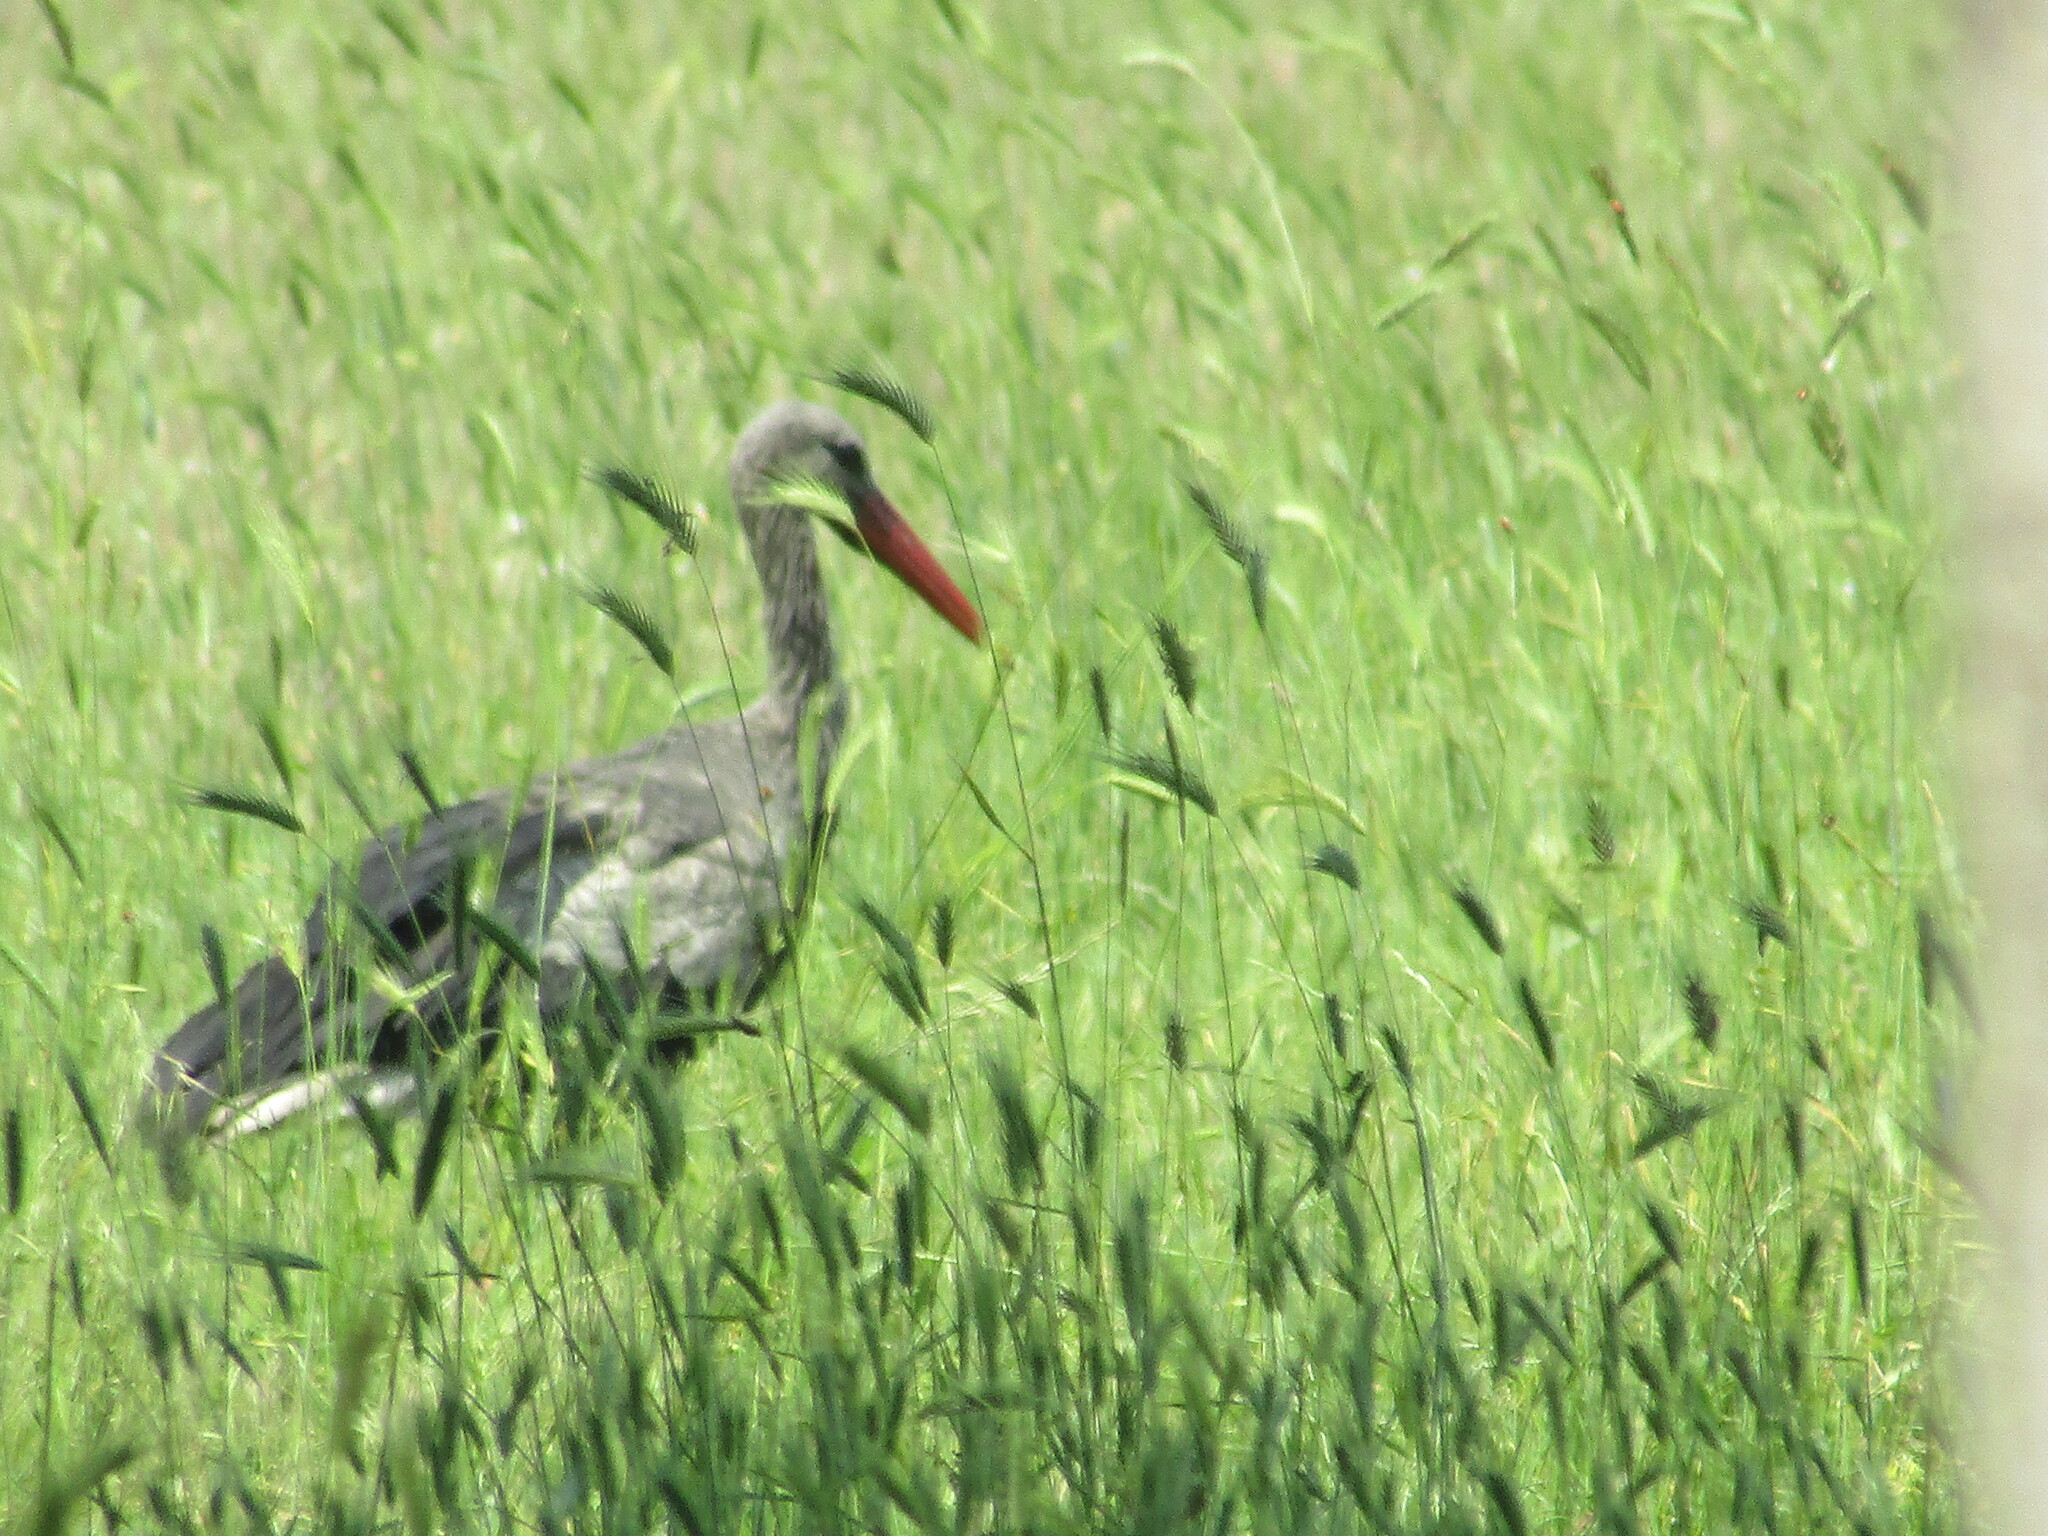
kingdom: Animalia
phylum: Chordata
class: Aves
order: Ciconiiformes
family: Ciconiidae
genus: Ciconia
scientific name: Ciconia ciconia
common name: White stork
